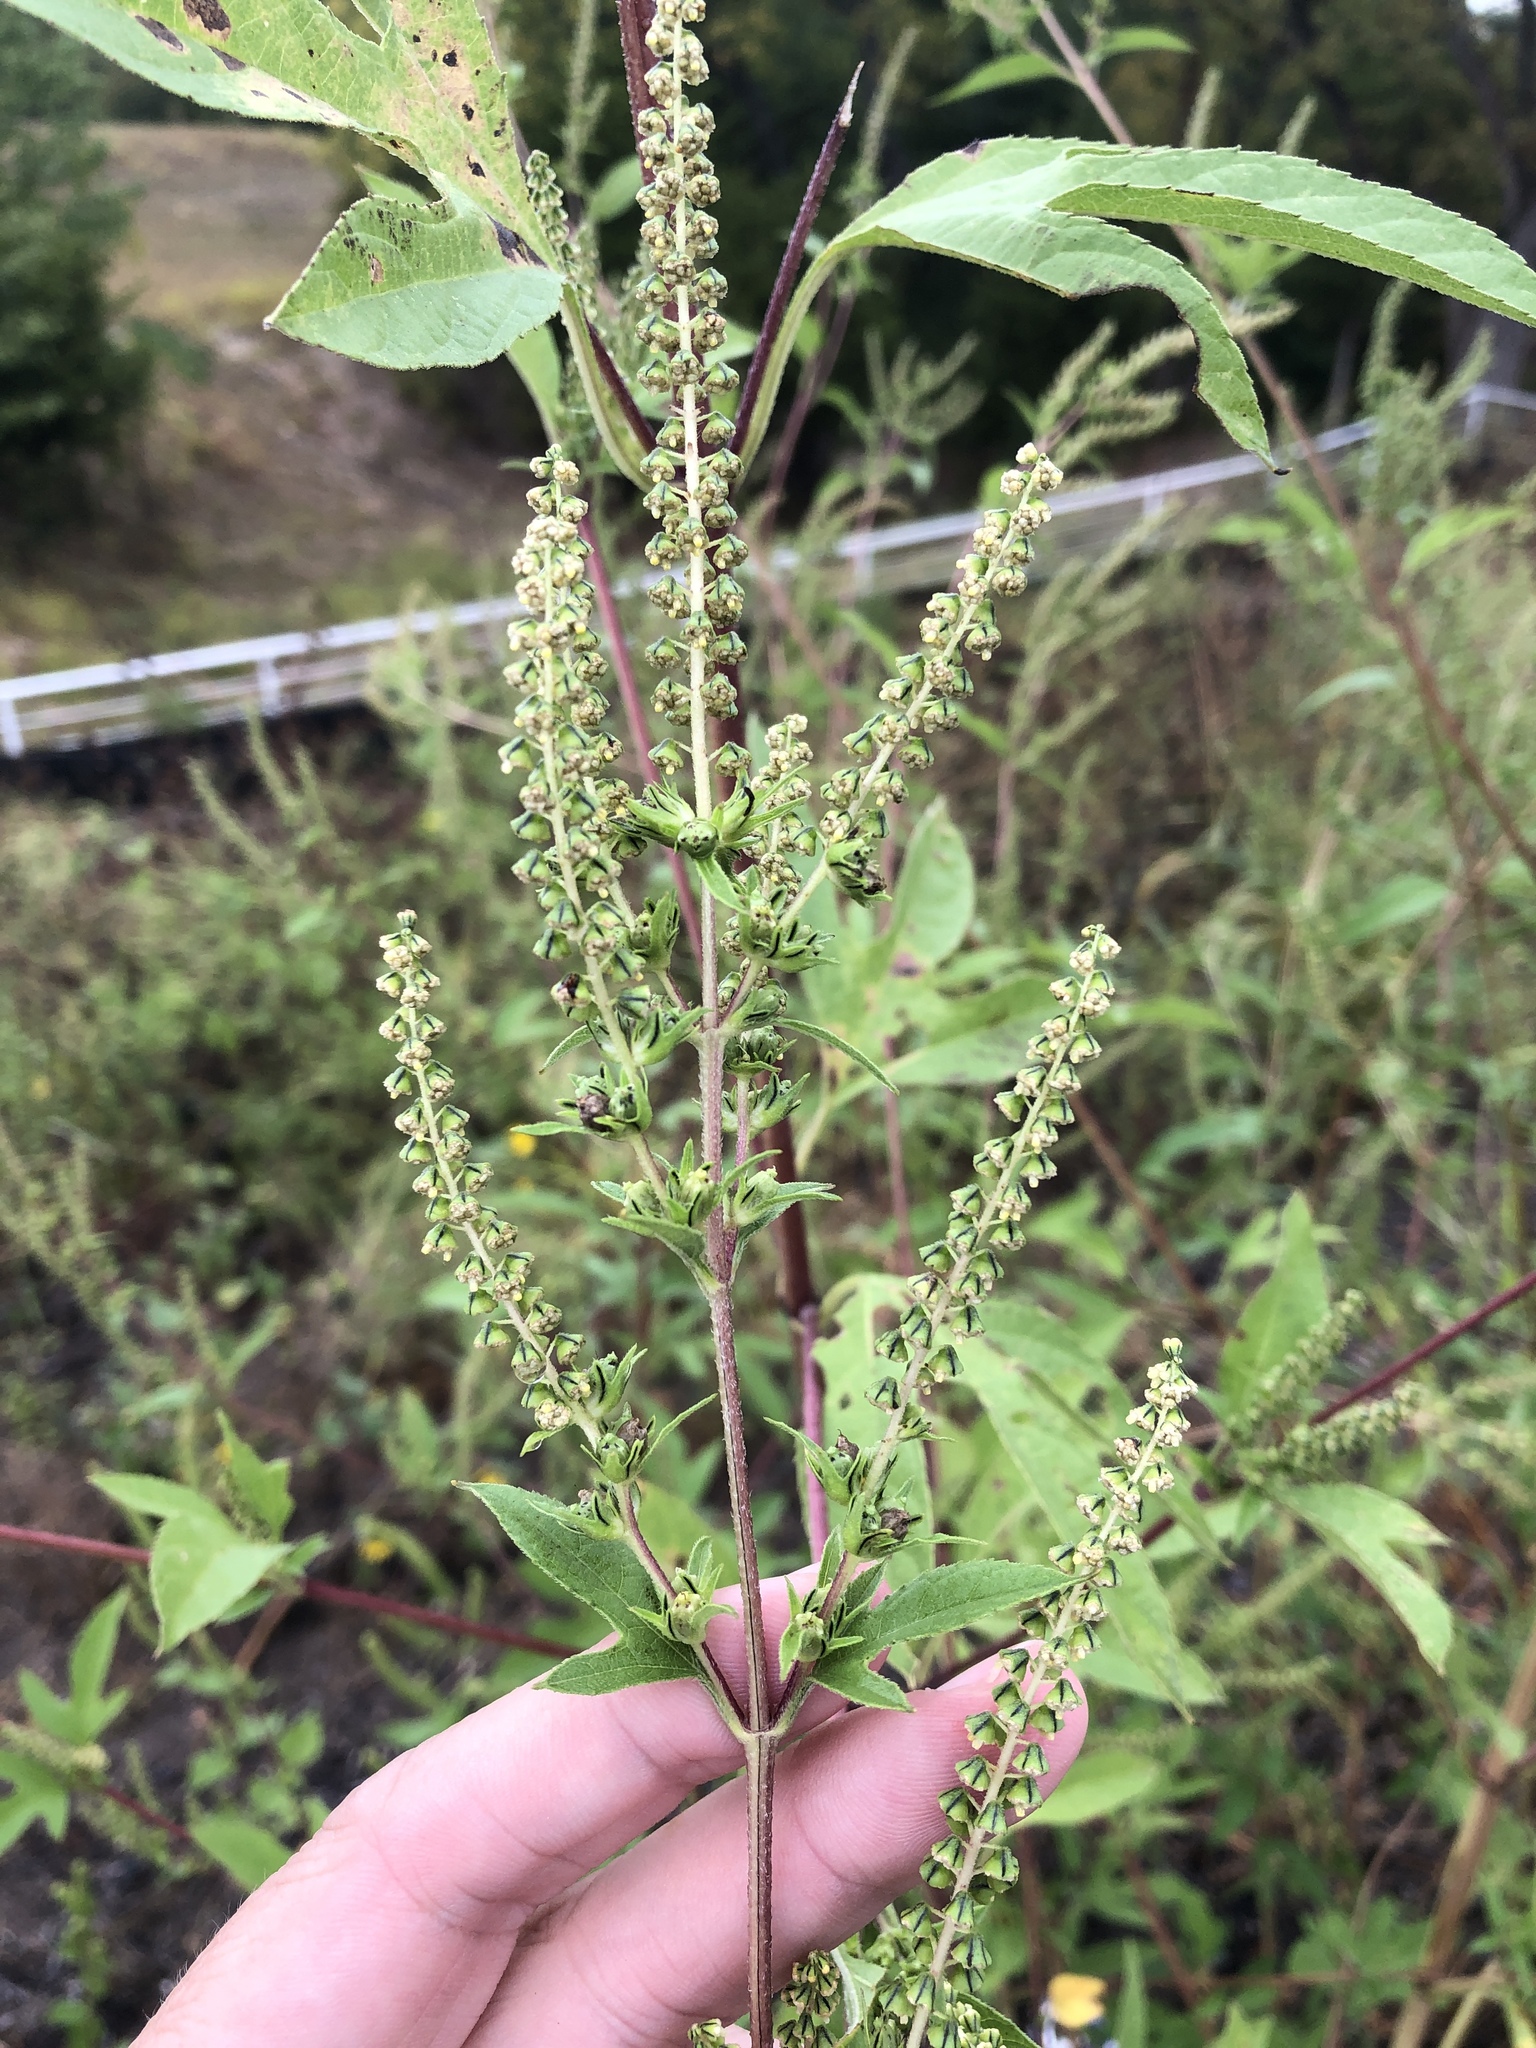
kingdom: Plantae
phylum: Tracheophyta
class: Magnoliopsida
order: Asterales
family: Asteraceae
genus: Ambrosia
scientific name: Ambrosia trifida
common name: Giant ragweed
